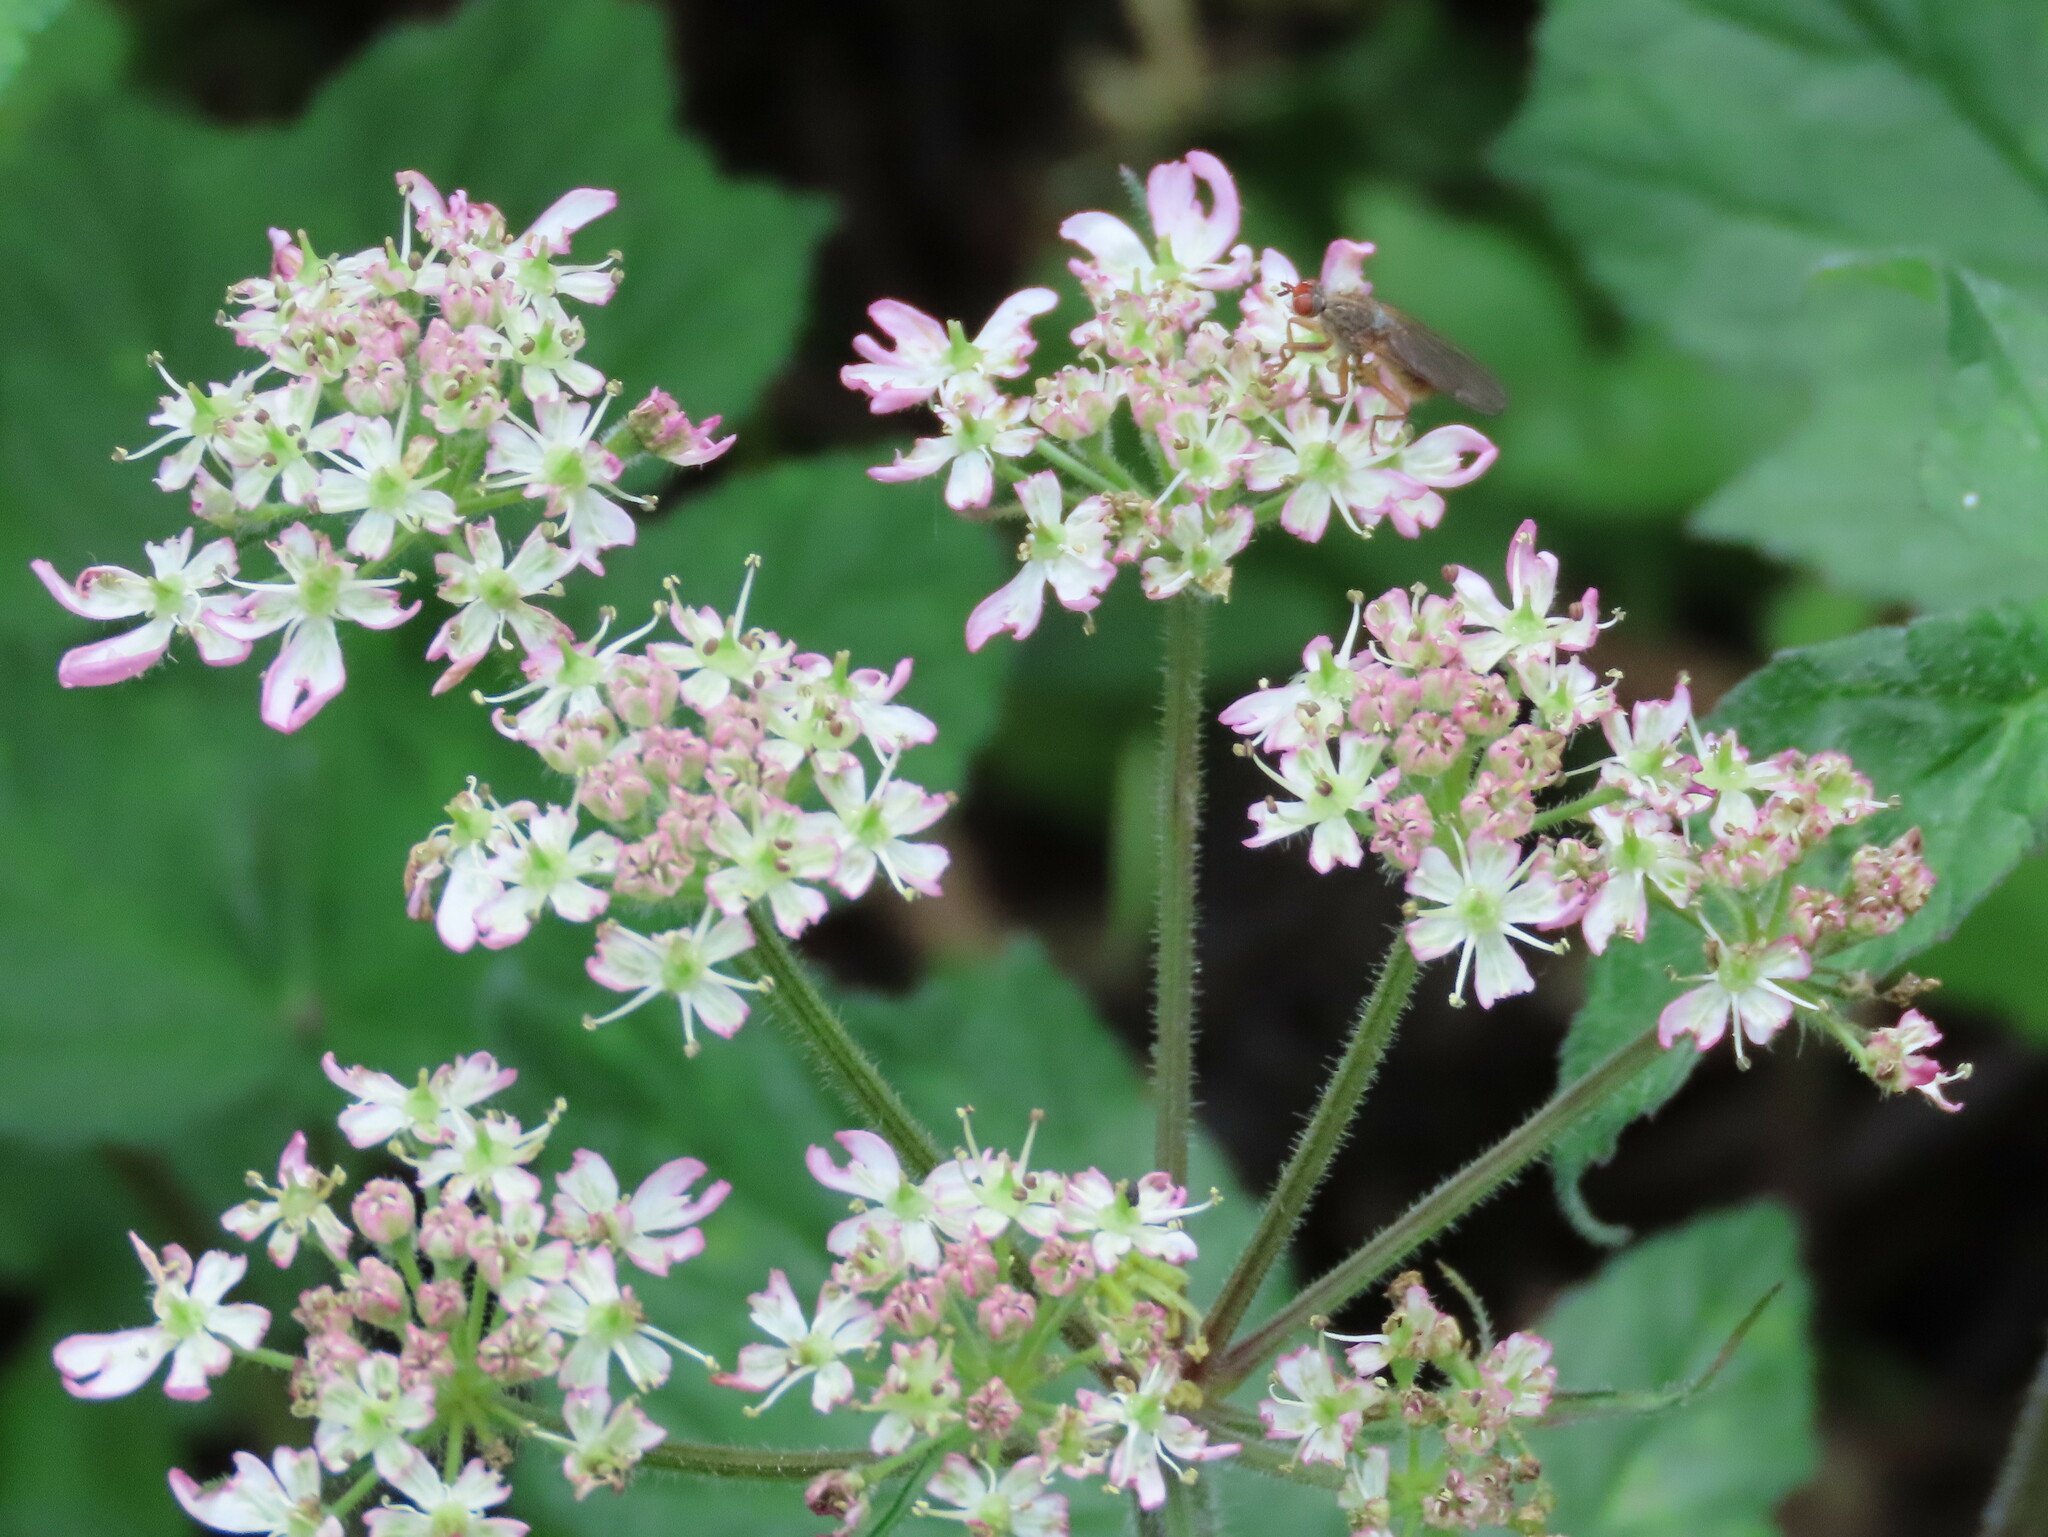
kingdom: Plantae
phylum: Tracheophyta
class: Magnoliopsida
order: Apiales
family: Apiaceae
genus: Heracleum
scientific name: Heracleum sphondylium
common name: Hogweed
